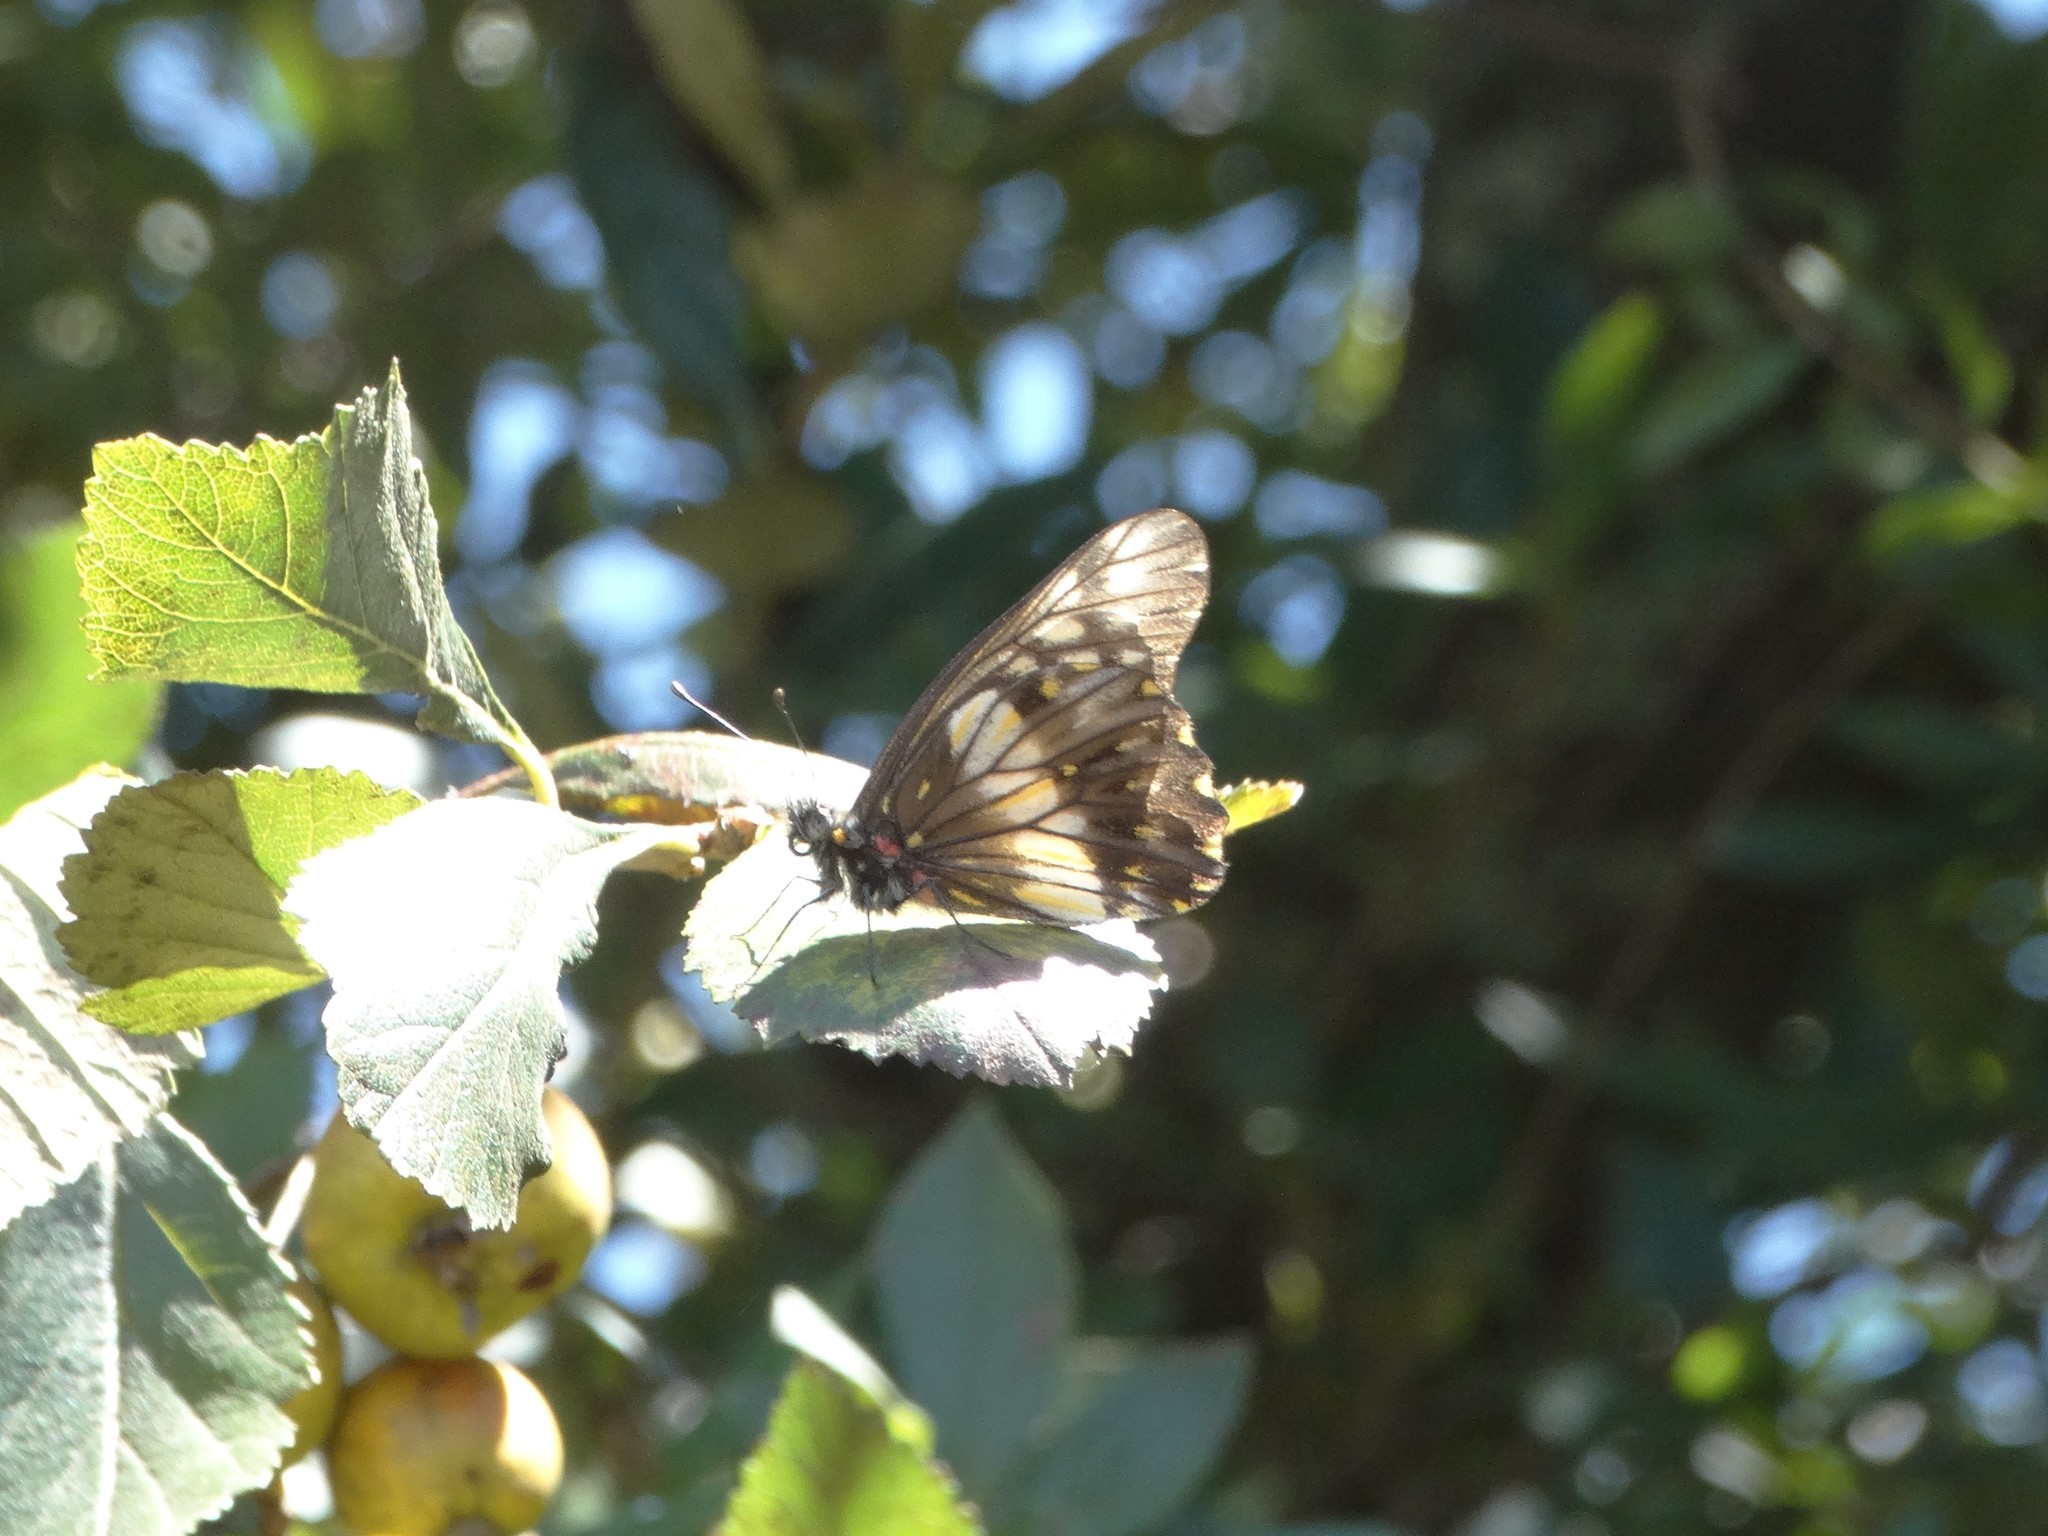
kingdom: Animalia
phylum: Arthropoda
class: Insecta
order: Lepidoptera
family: Pieridae
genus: Archonias
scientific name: Archonias nimbice
